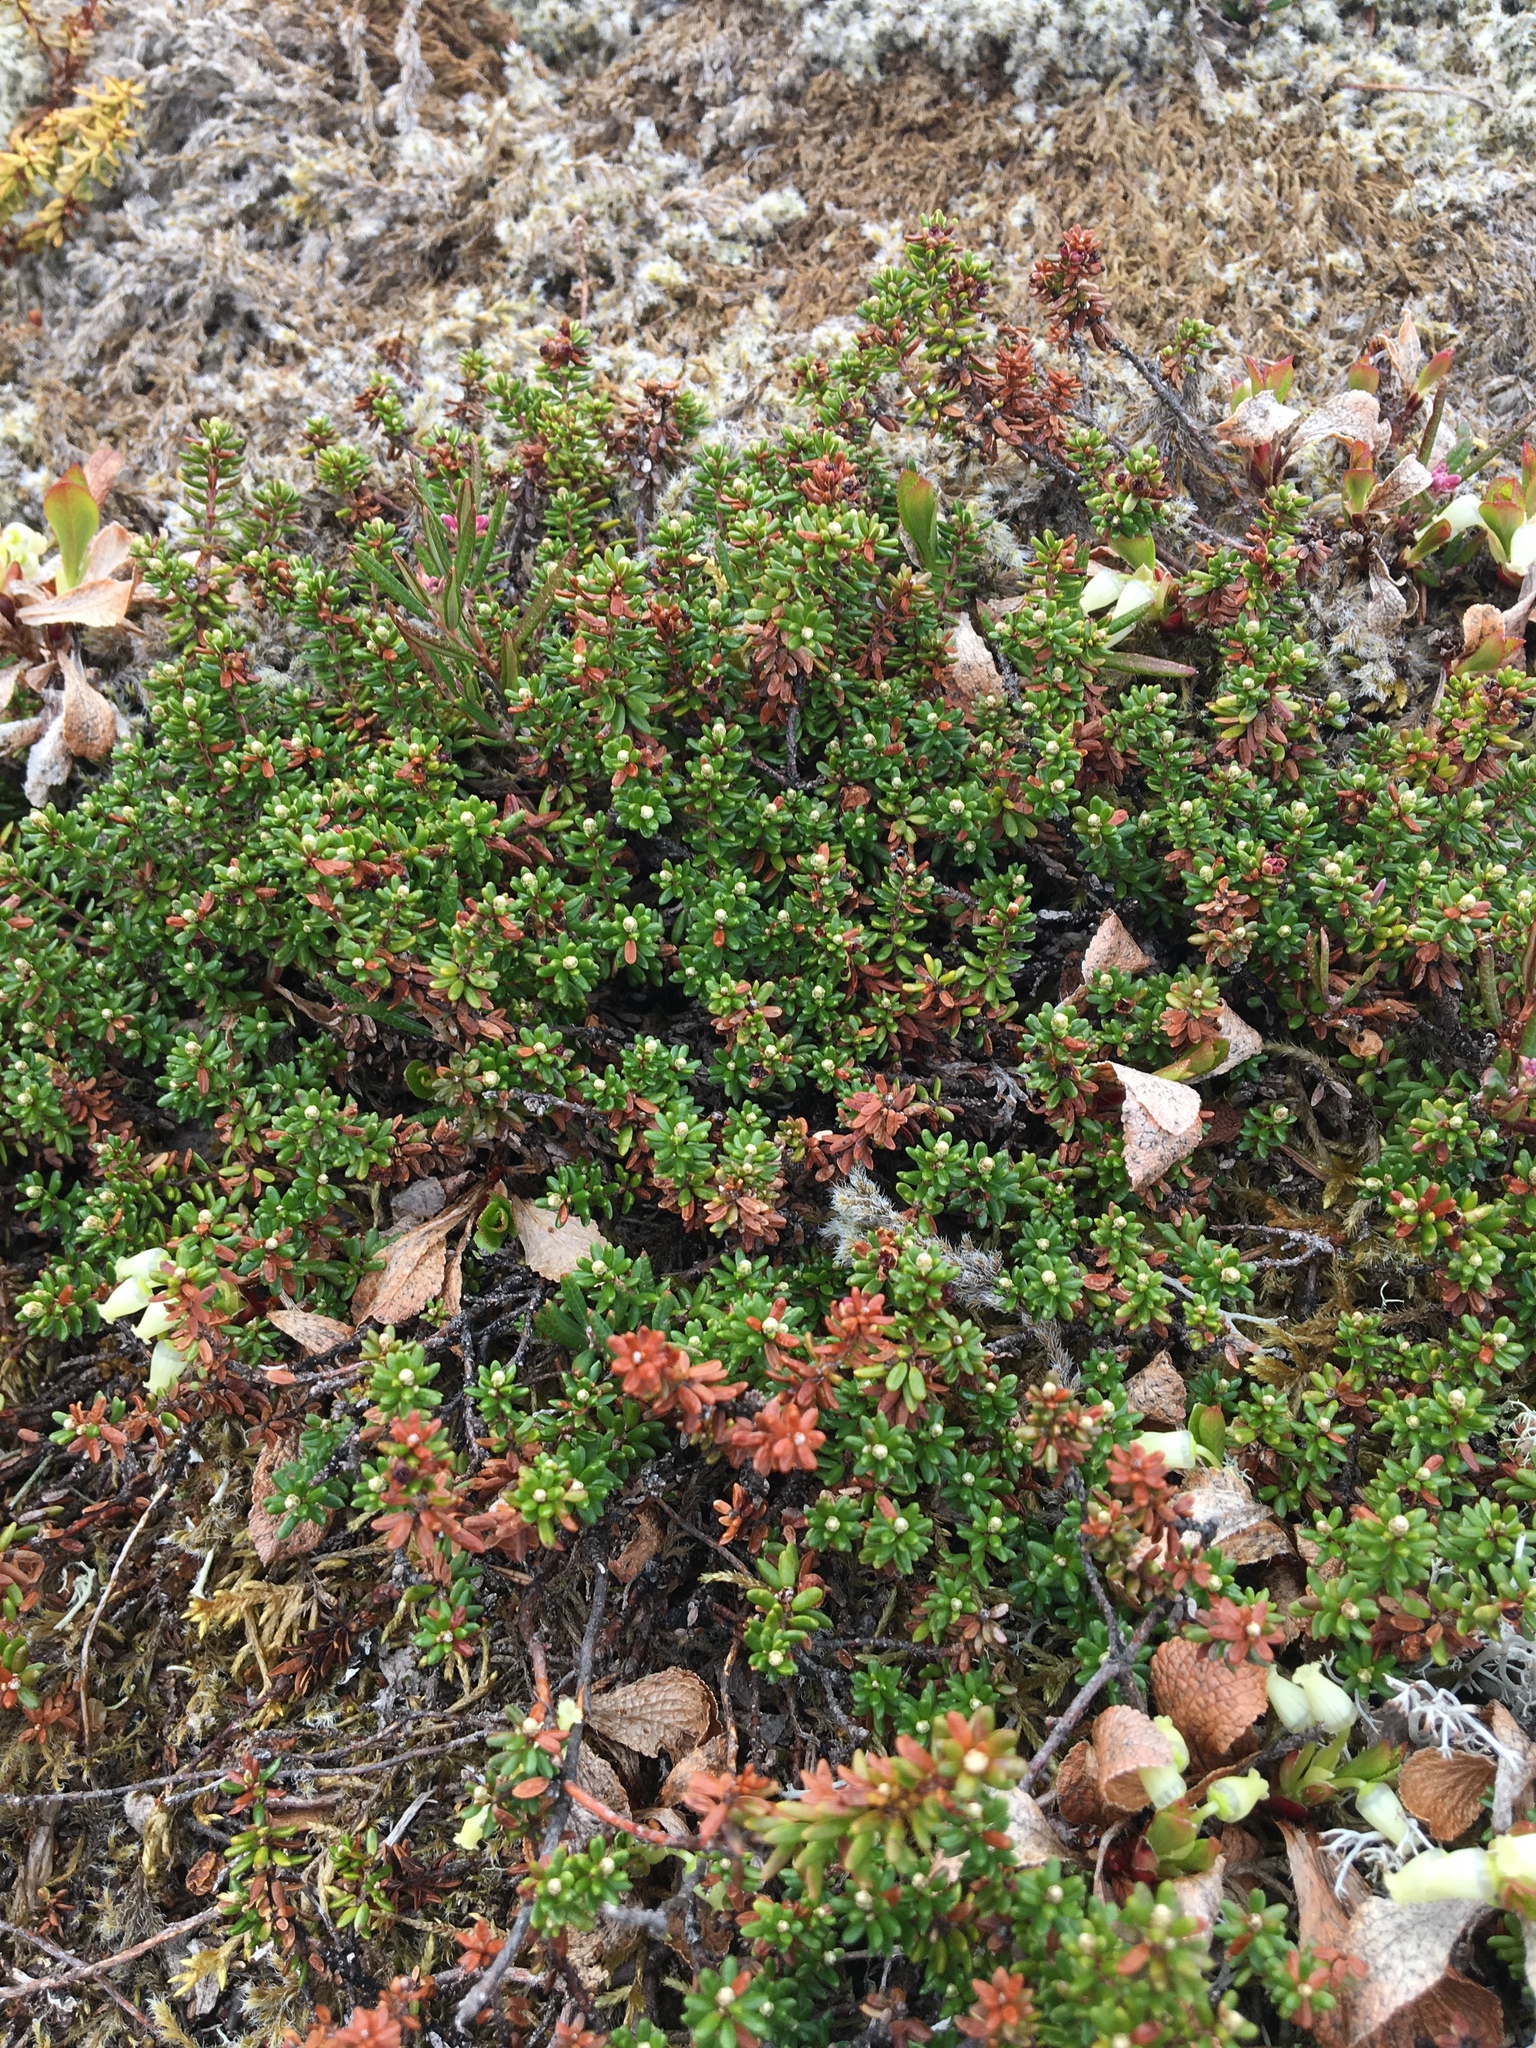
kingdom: Plantae
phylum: Tracheophyta
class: Magnoliopsida
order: Ericales
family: Ericaceae
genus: Empetrum
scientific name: Empetrum nigrum
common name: Black crowberry
